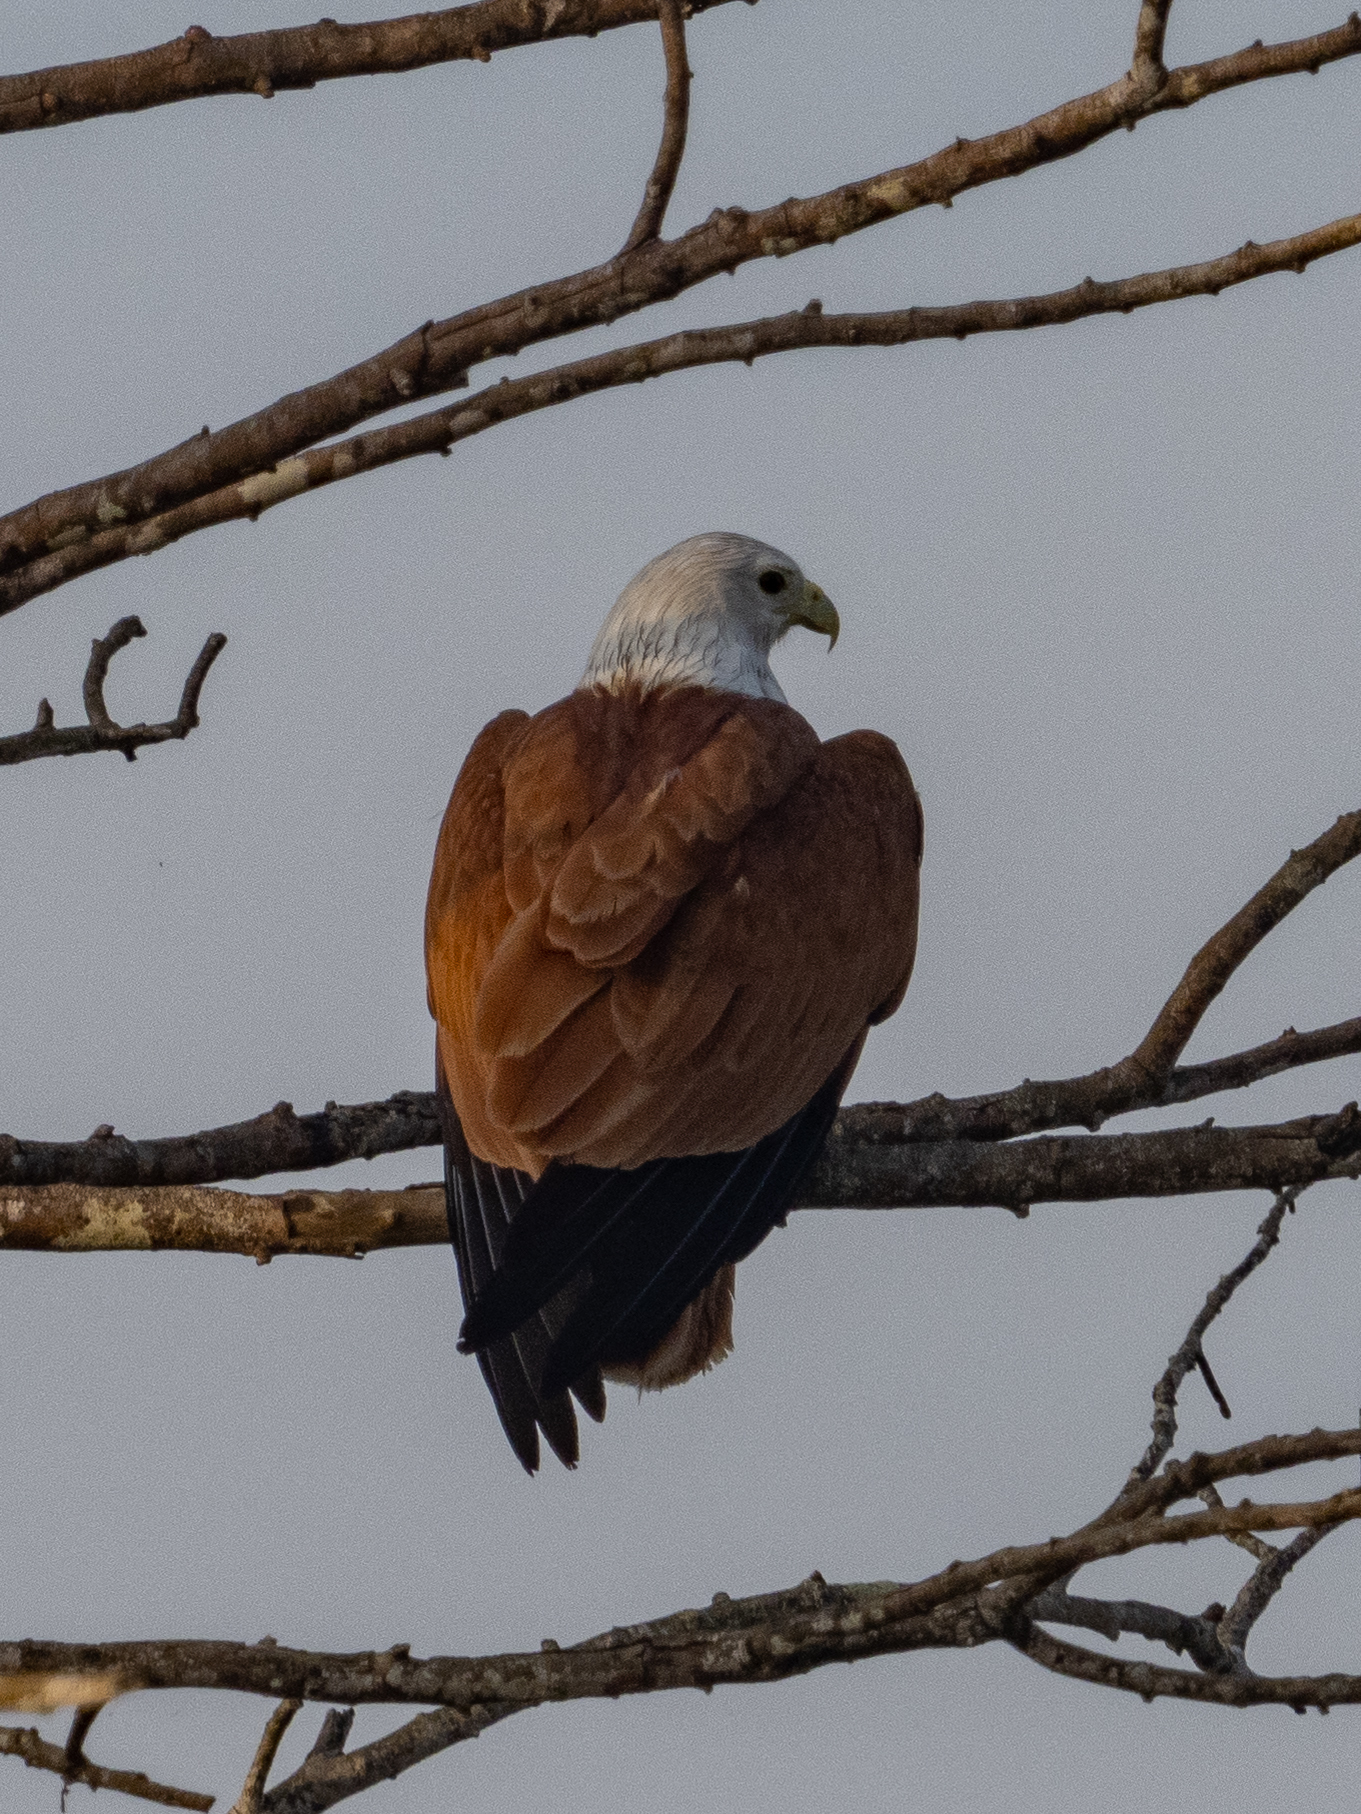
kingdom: Animalia
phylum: Chordata
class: Aves
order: Accipitriformes
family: Accipitridae
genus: Haliastur
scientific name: Haliastur indus
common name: Brahminy kite
